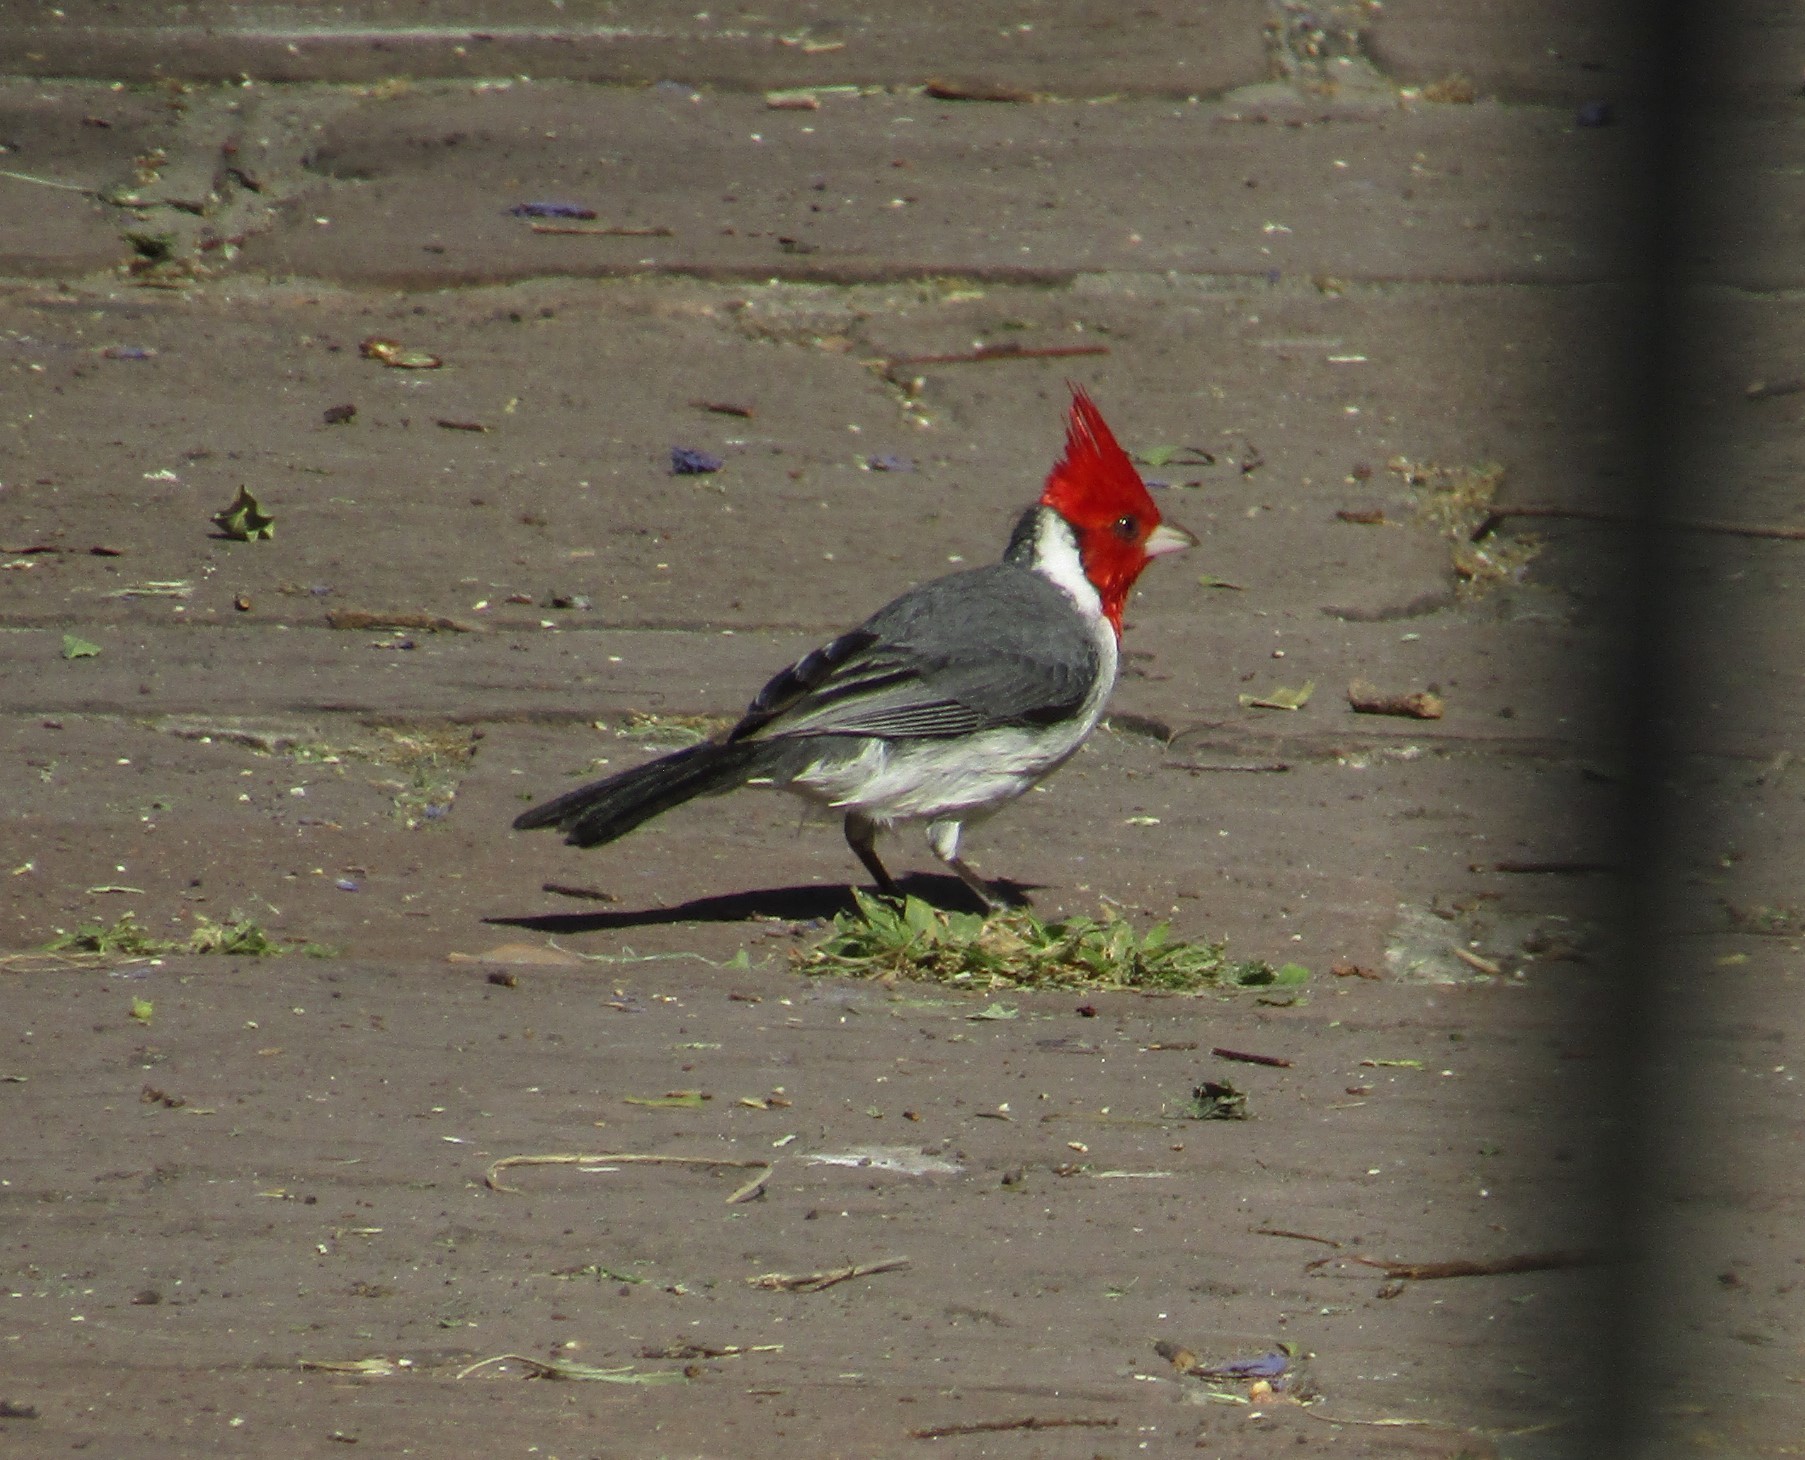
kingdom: Animalia
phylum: Chordata
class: Aves
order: Passeriformes
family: Thraupidae
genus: Paroaria
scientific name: Paroaria coronata
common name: Red-crested cardinal
